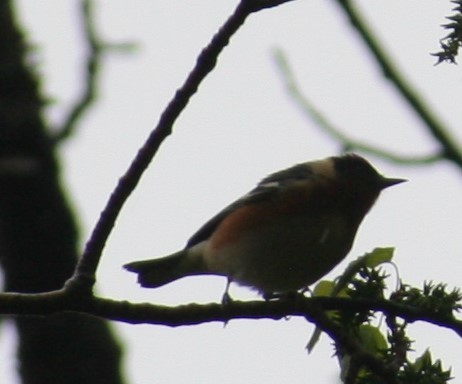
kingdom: Animalia
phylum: Chordata
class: Aves
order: Passeriformes
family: Parulidae
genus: Setophaga
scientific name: Setophaga castanea
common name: Bay-breasted warbler
